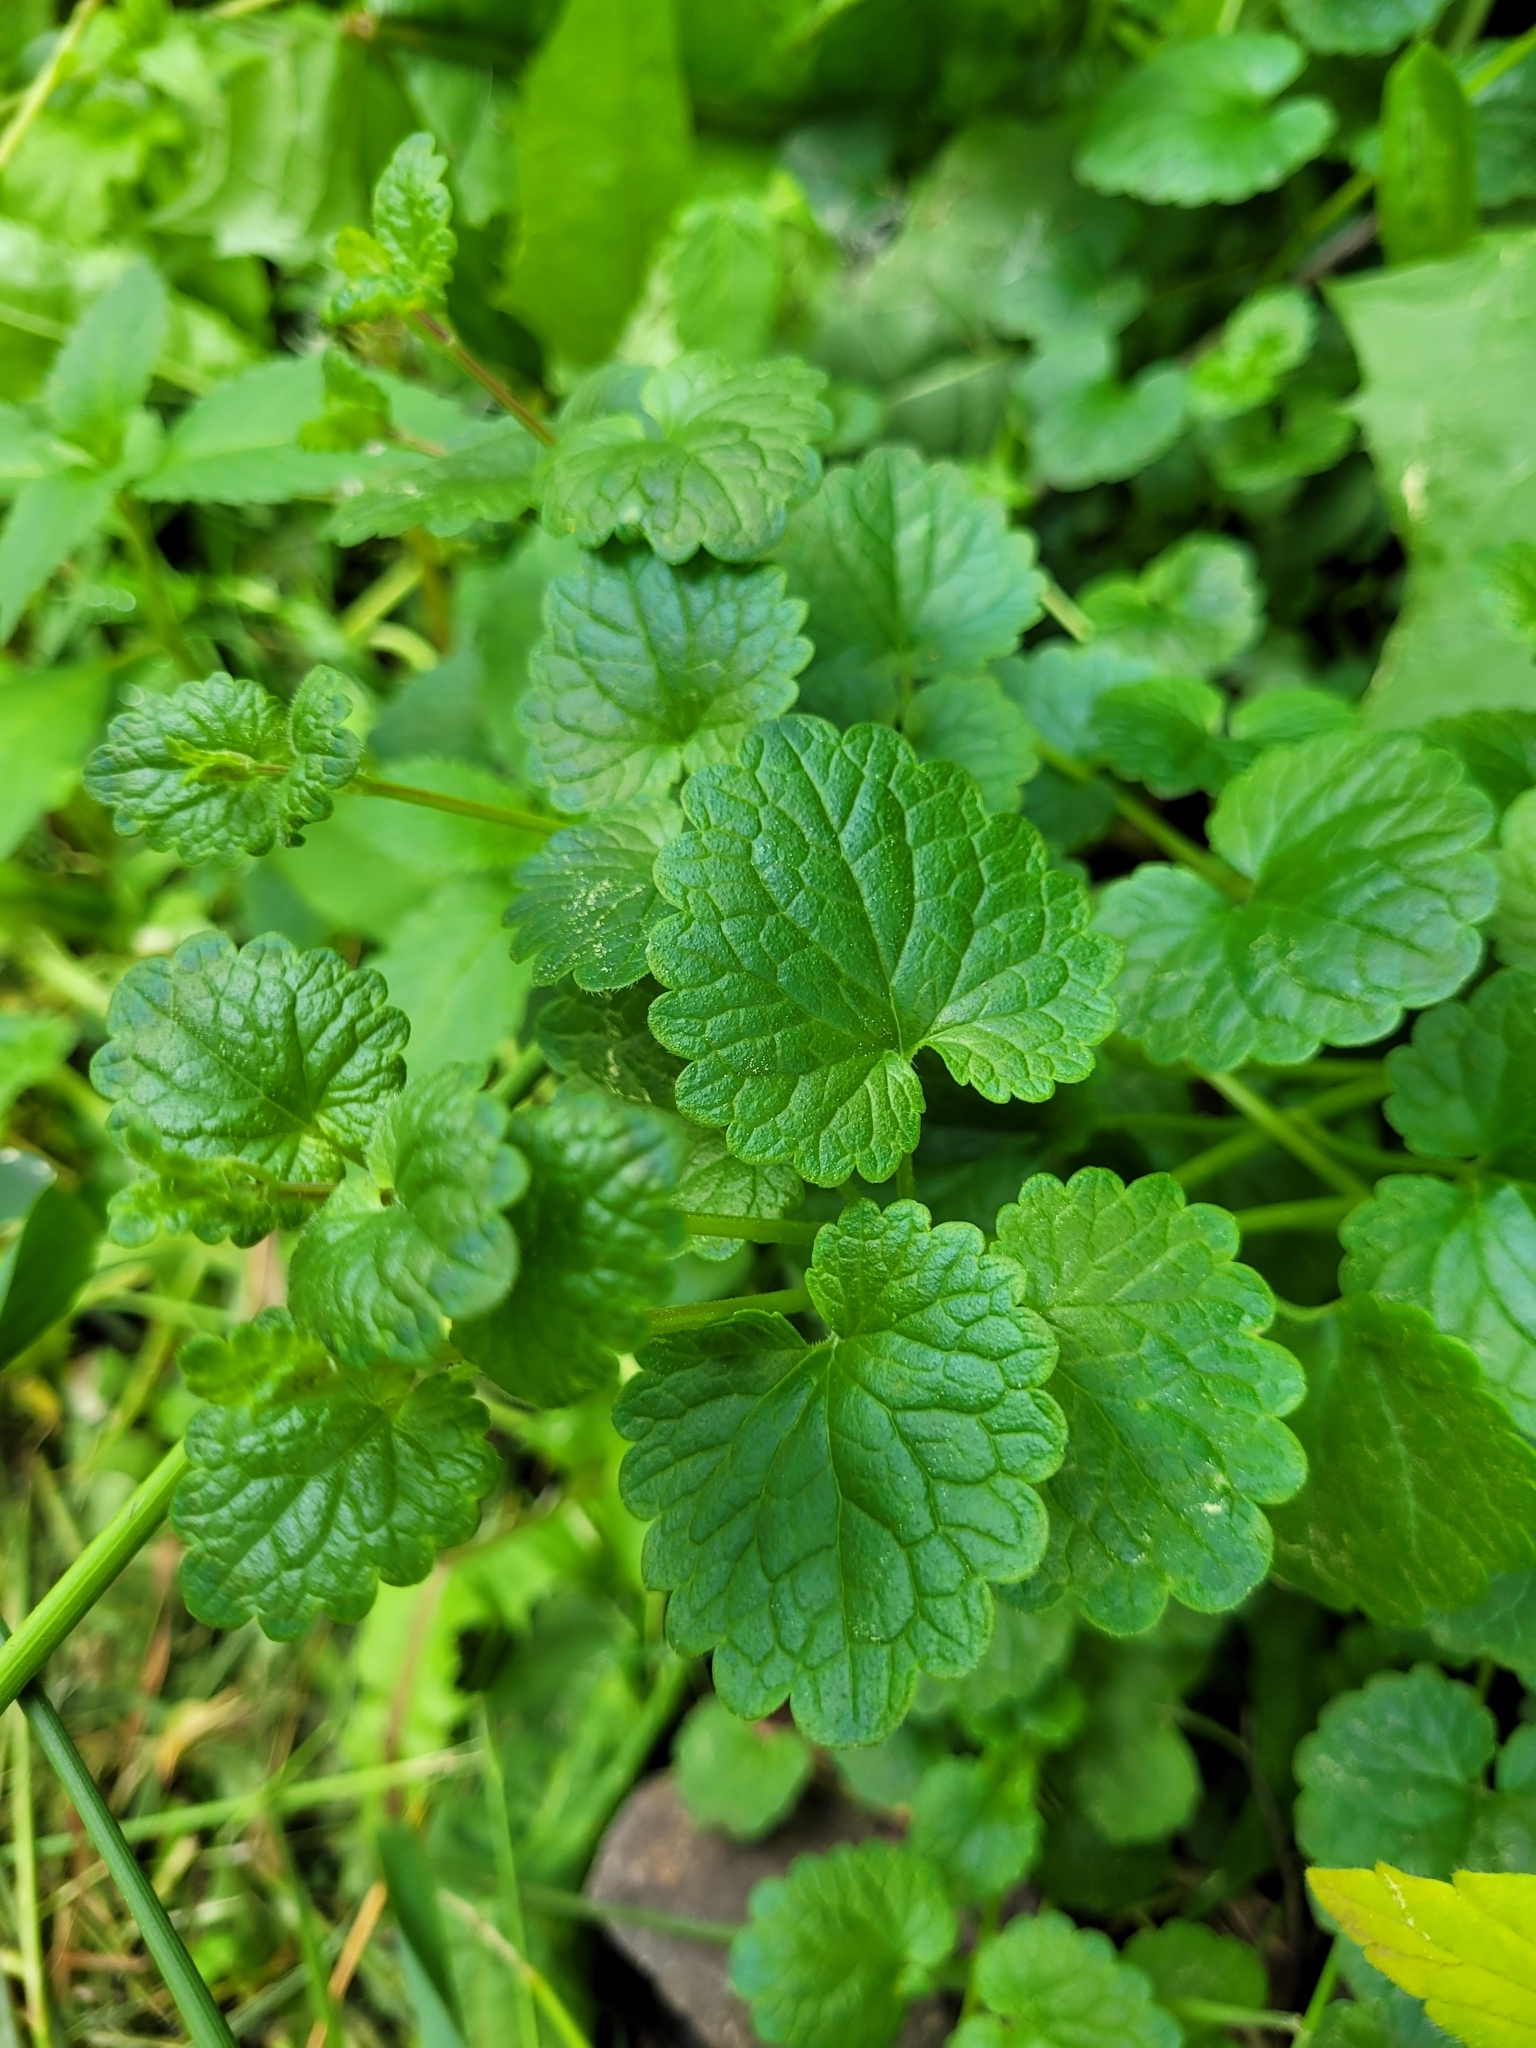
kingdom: Plantae
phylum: Tracheophyta
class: Magnoliopsida
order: Lamiales
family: Lamiaceae
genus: Glechoma
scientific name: Glechoma hederacea
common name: Ground ivy
